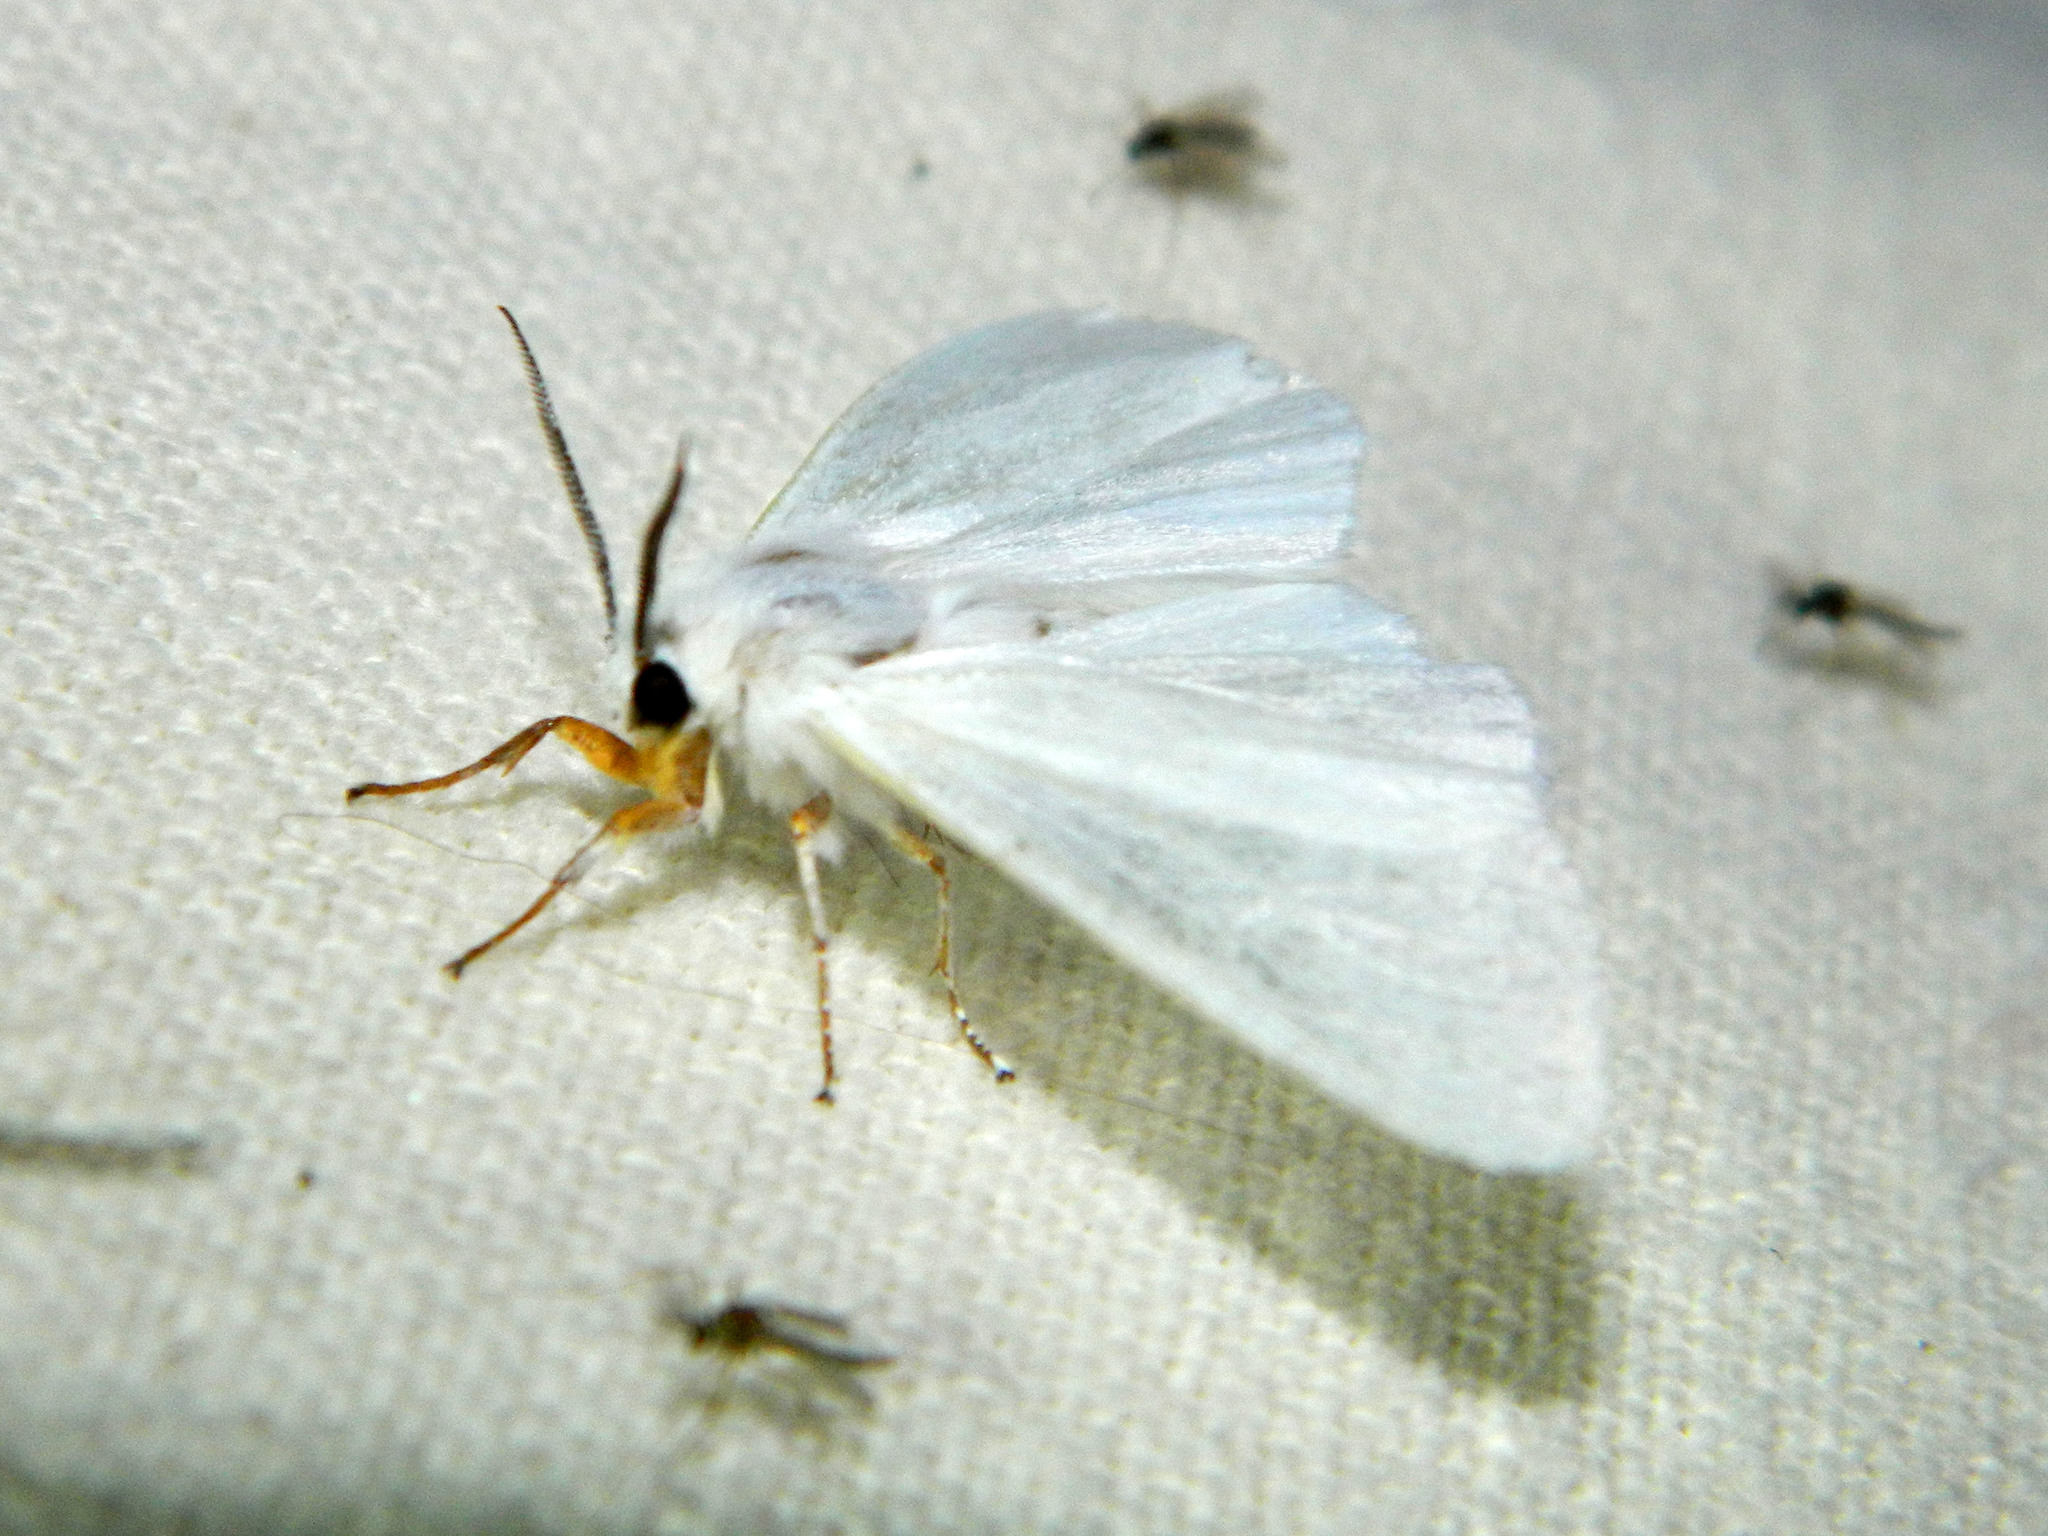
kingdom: Animalia
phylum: Arthropoda
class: Insecta
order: Lepidoptera
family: Erebidae
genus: Hyphantria
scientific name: Hyphantria cunea
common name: American white moth
